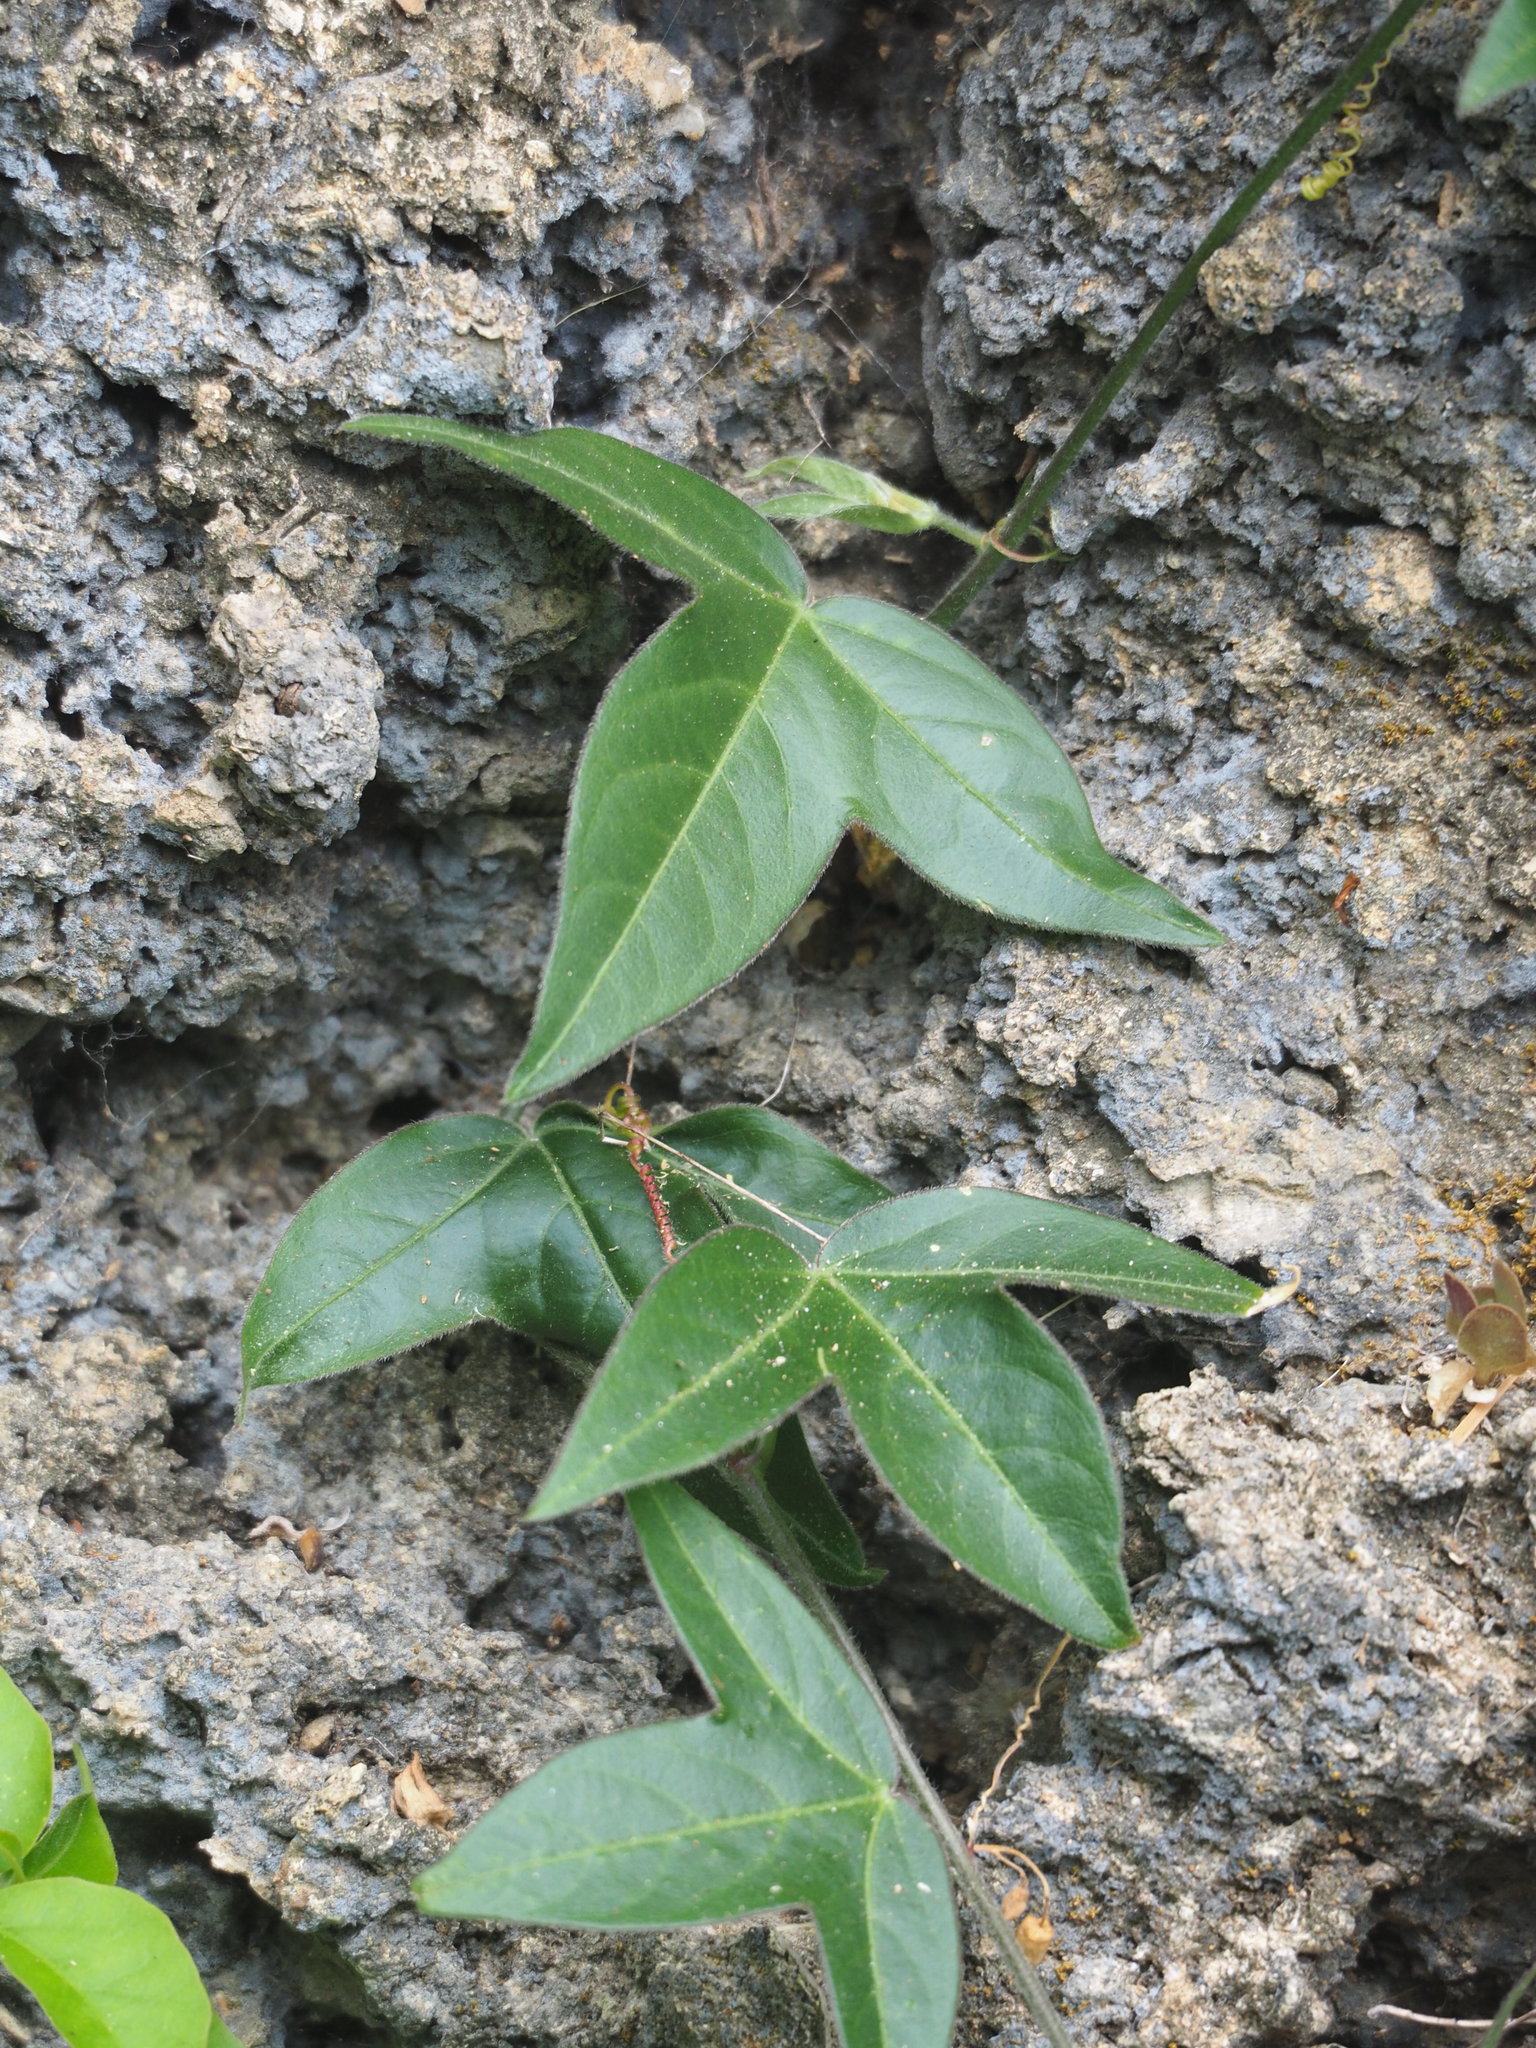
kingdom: Plantae
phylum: Tracheophyta
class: Magnoliopsida
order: Malpighiales
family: Passifloraceae
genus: Passiflora
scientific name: Passiflora suberosa
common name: Wild passionfruit
